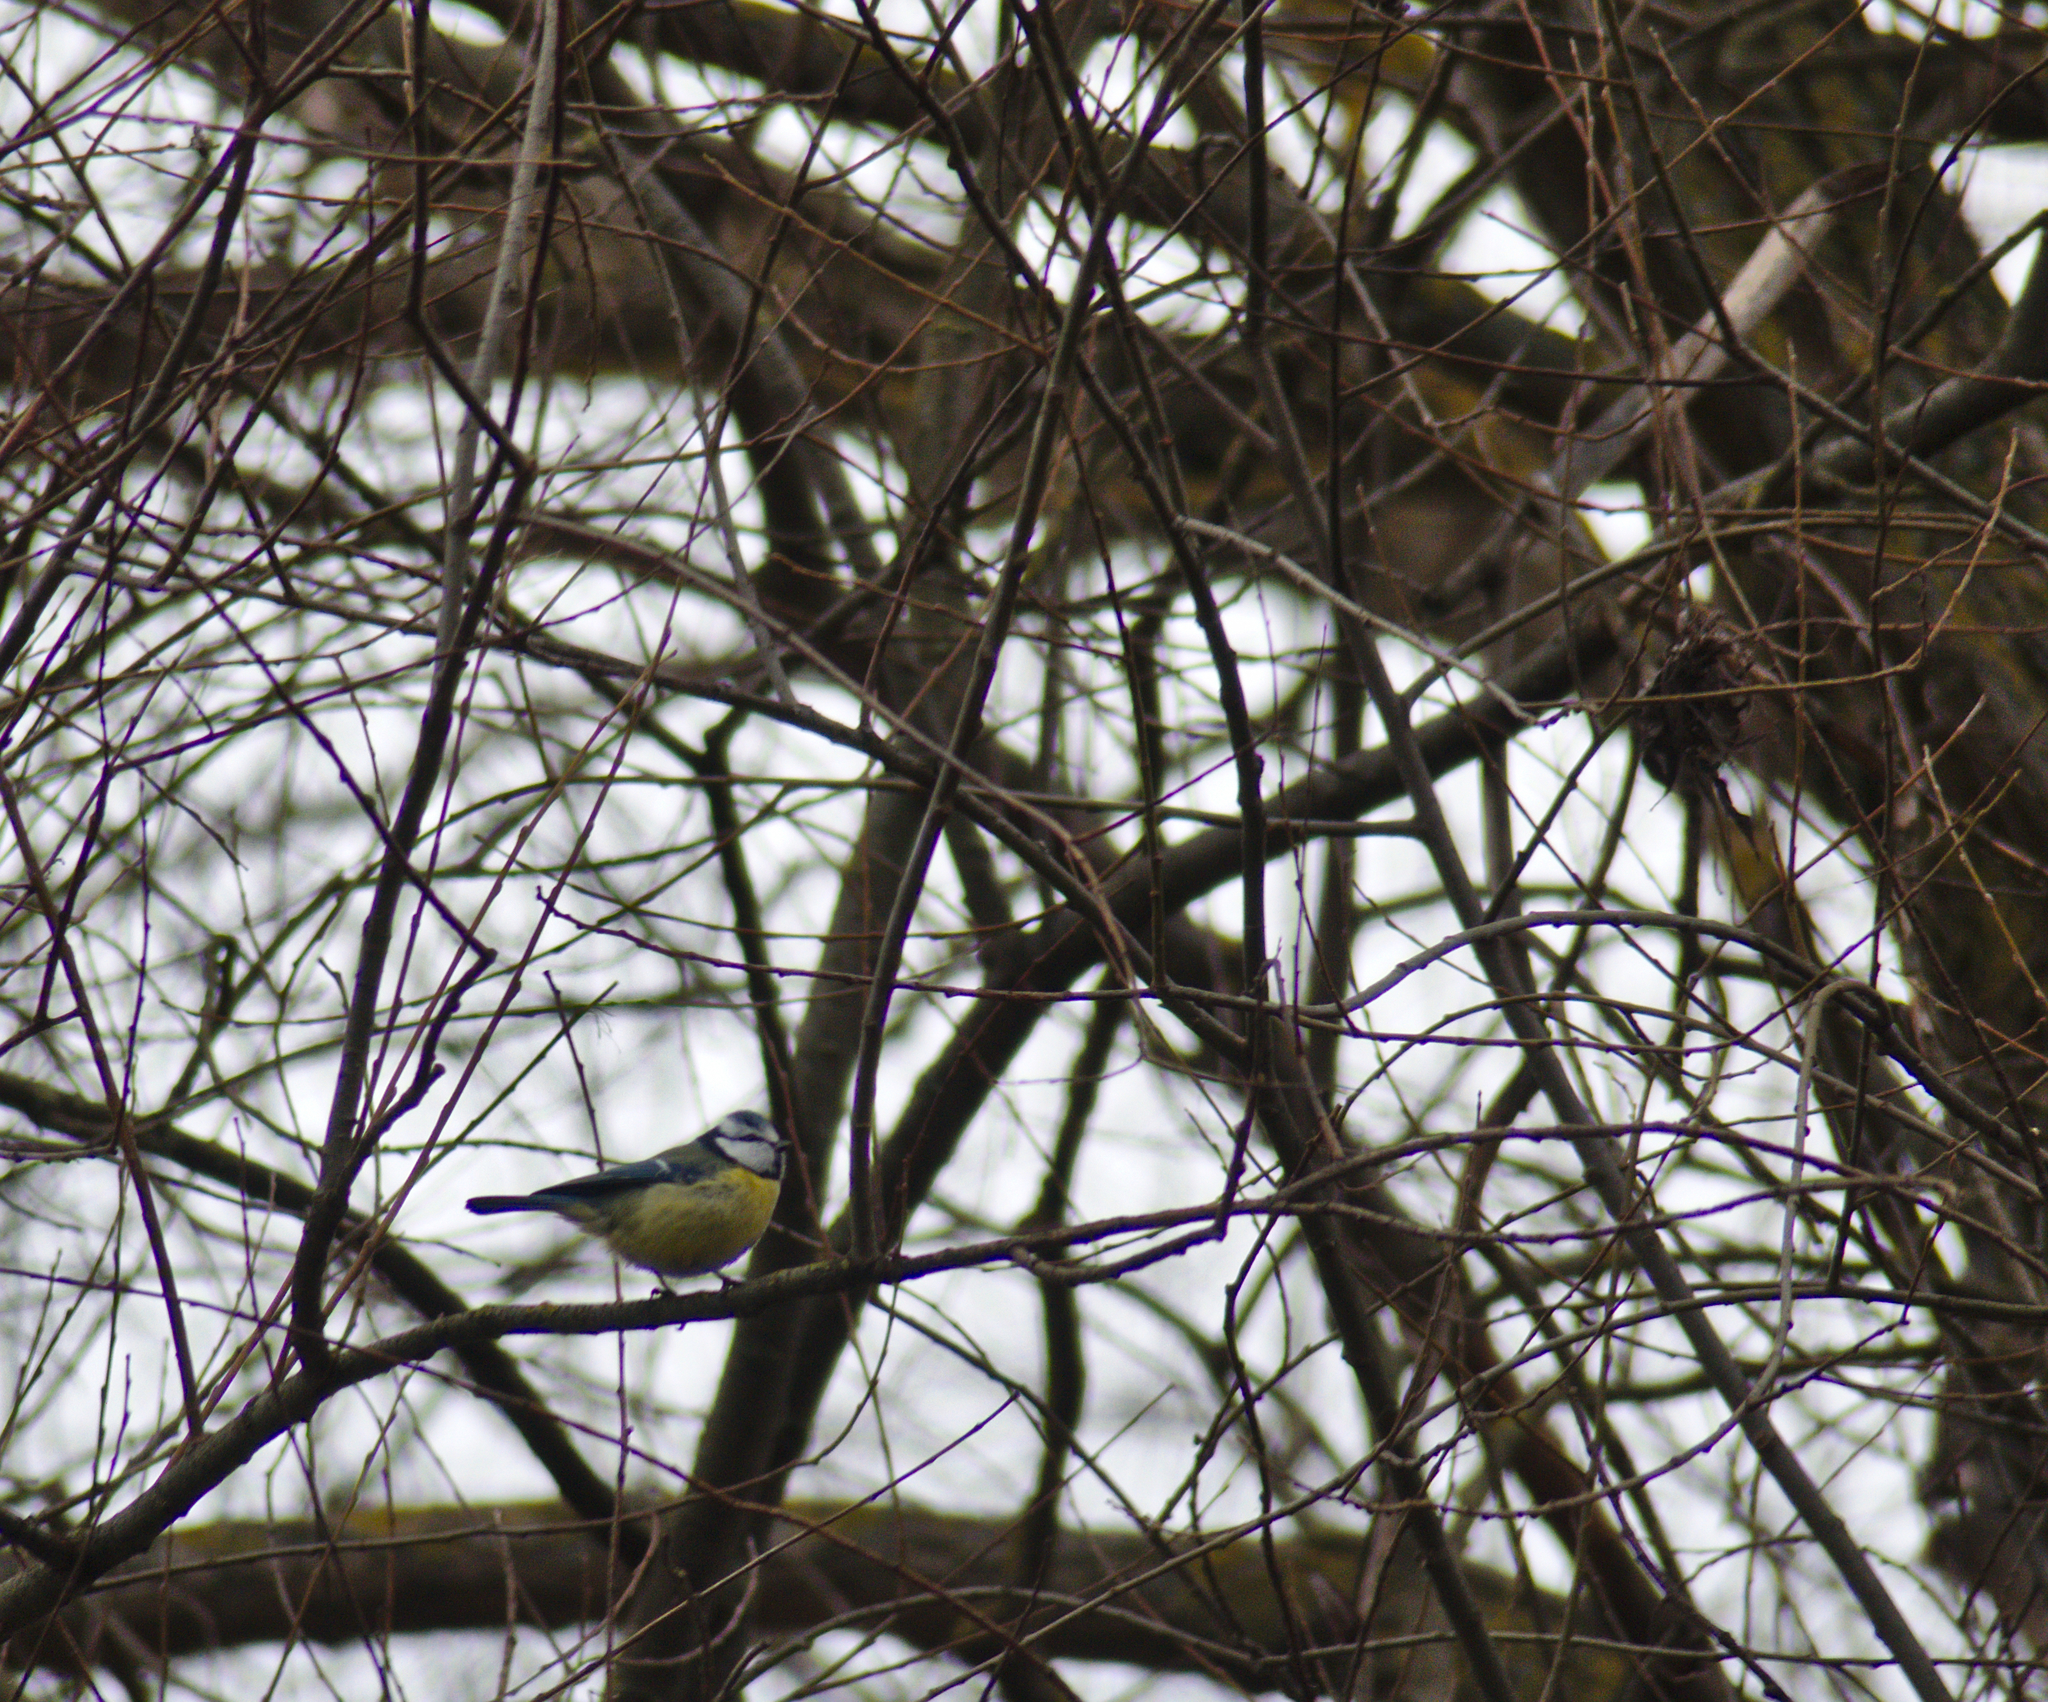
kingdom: Animalia
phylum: Chordata
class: Aves
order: Passeriformes
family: Paridae
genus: Cyanistes
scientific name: Cyanistes caeruleus
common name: Eurasian blue tit
